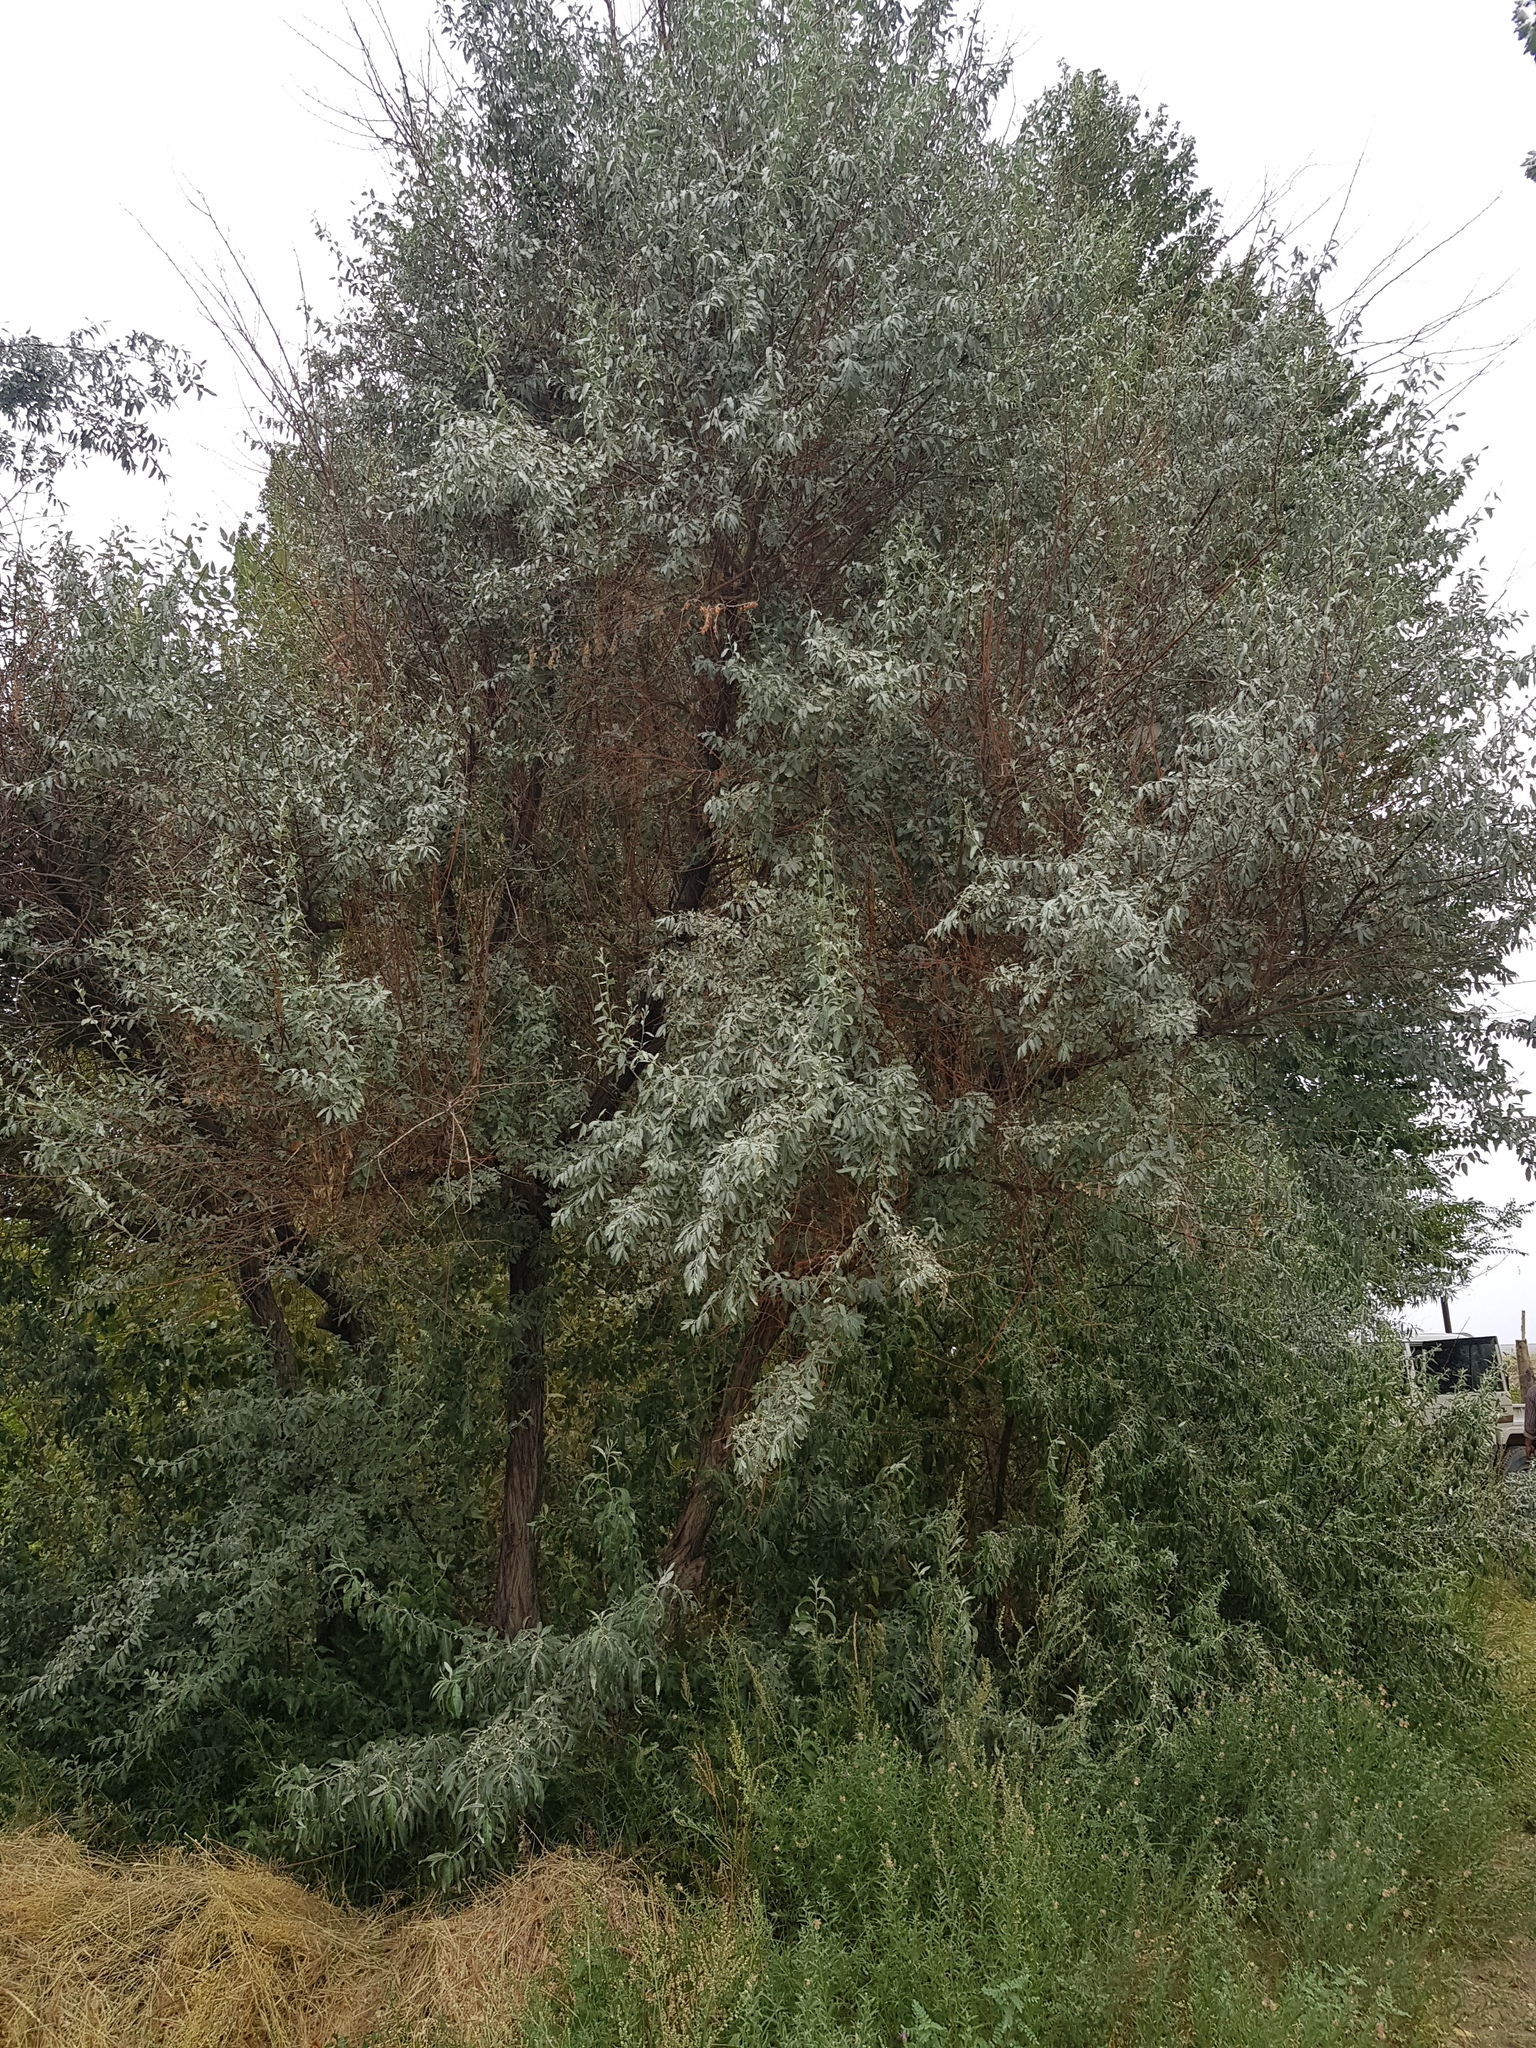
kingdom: Plantae
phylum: Tracheophyta
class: Magnoliopsida
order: Rosales
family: Elaeagnaceae
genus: Elaeagnus
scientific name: Elaeagnus angustifolia
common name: Russian olive
